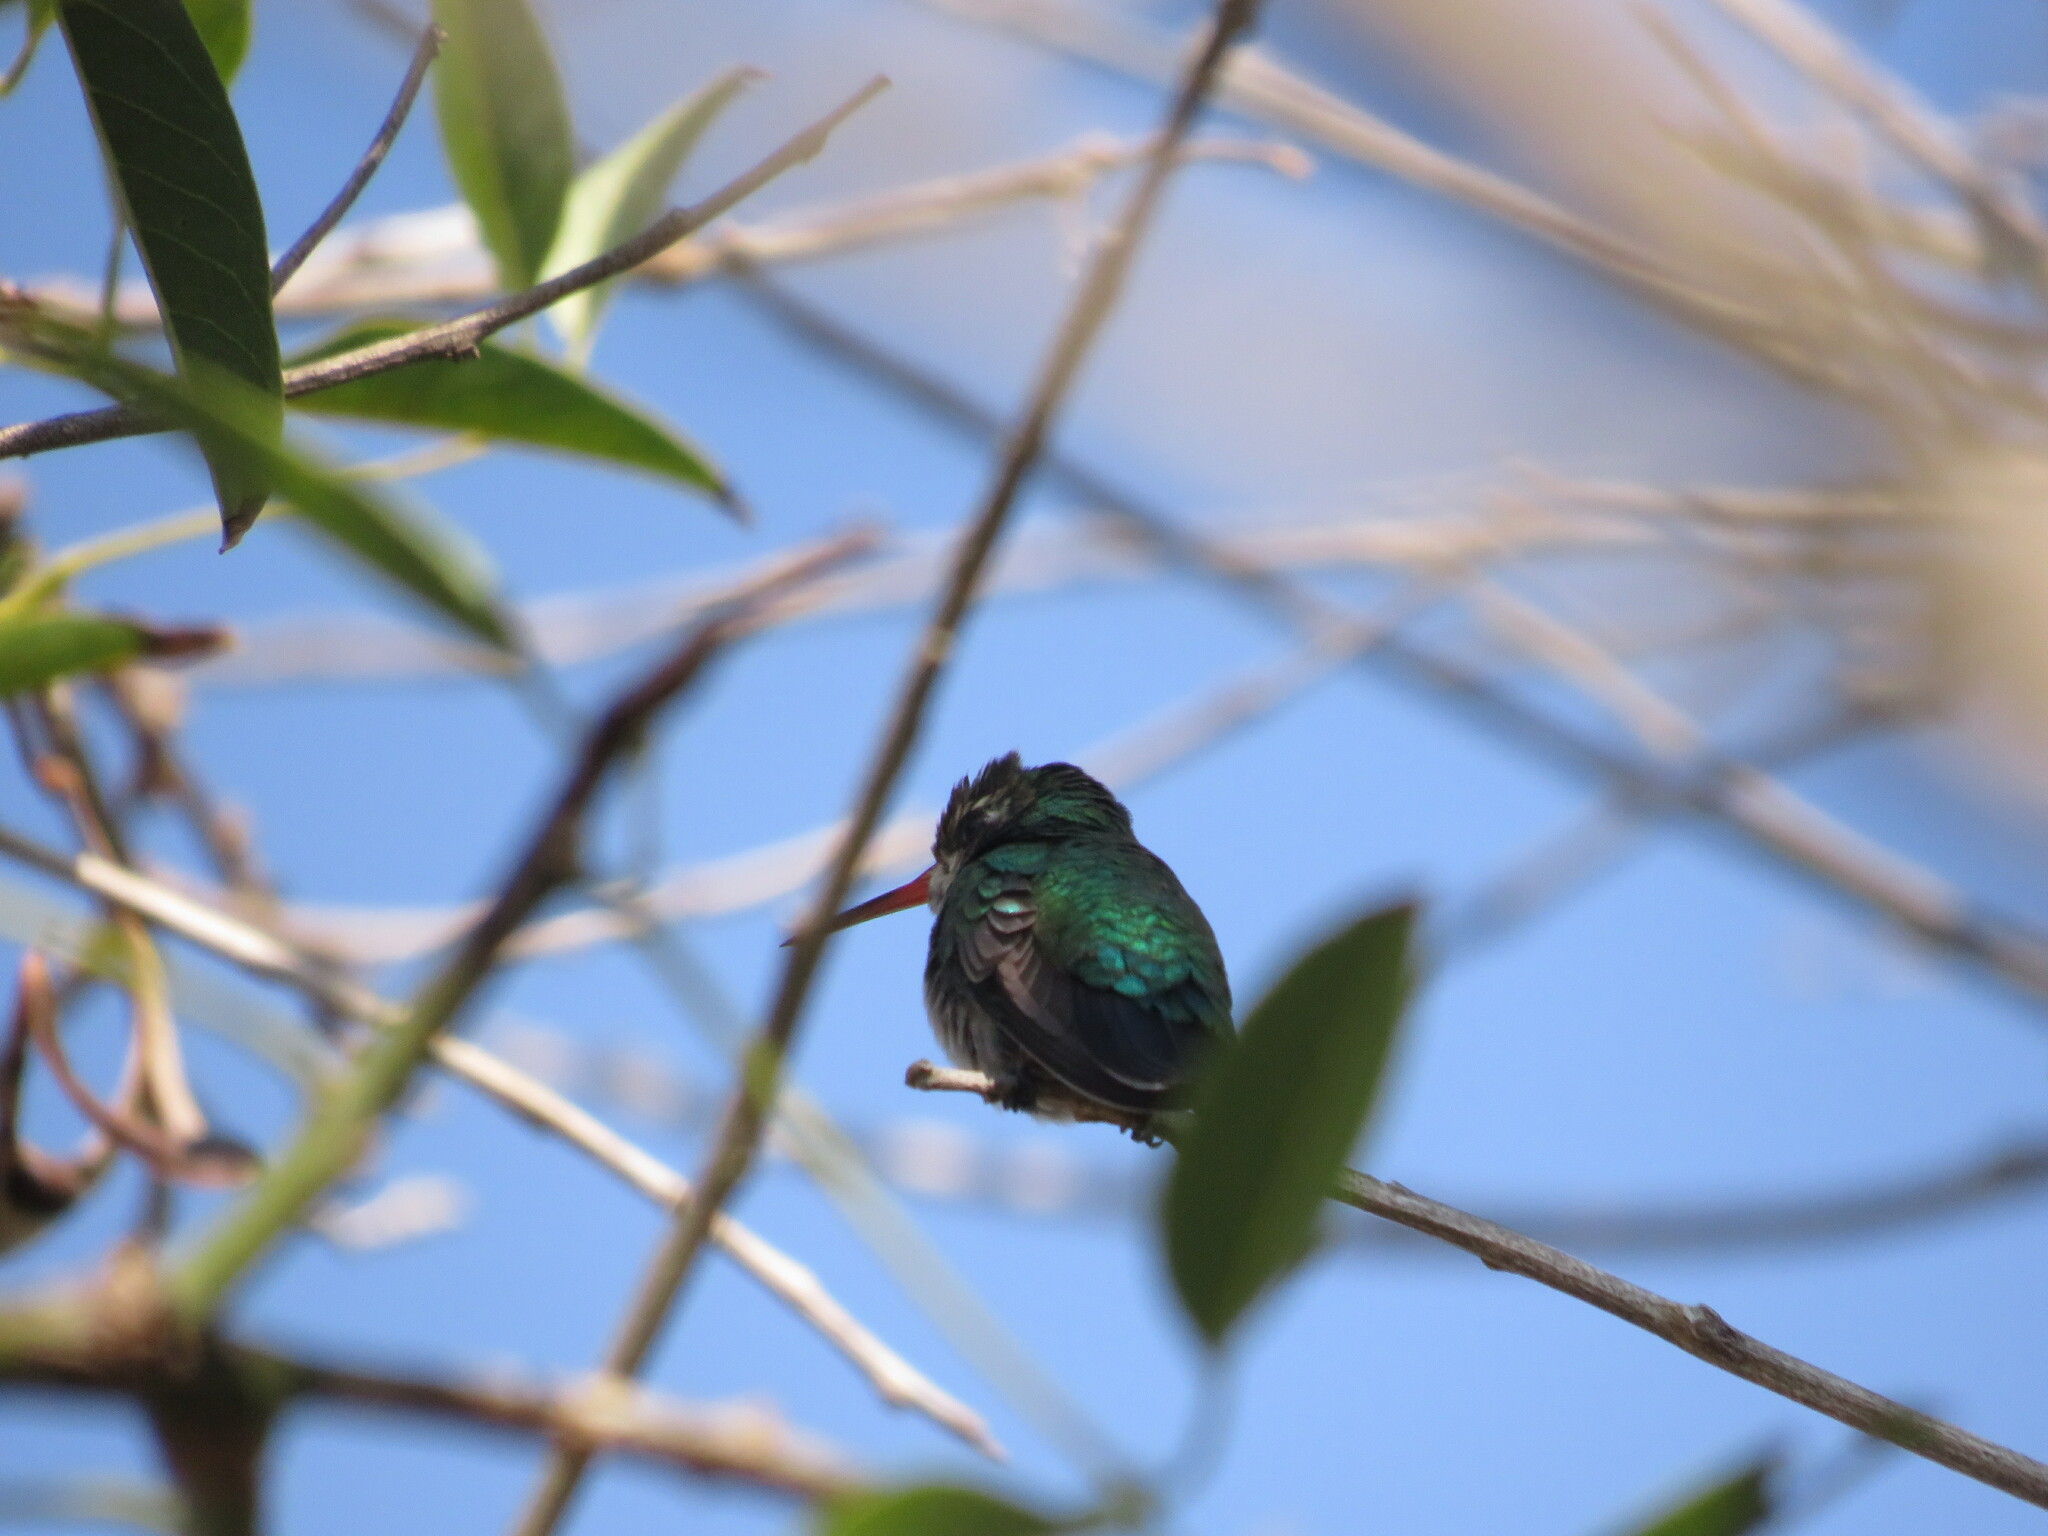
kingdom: Animalia
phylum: Chordata
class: Aves
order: Apodiformes
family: Trochilidae
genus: Chlorostilbon
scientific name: Chlorostilbon lucidus
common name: Glittering-bellied emerald
